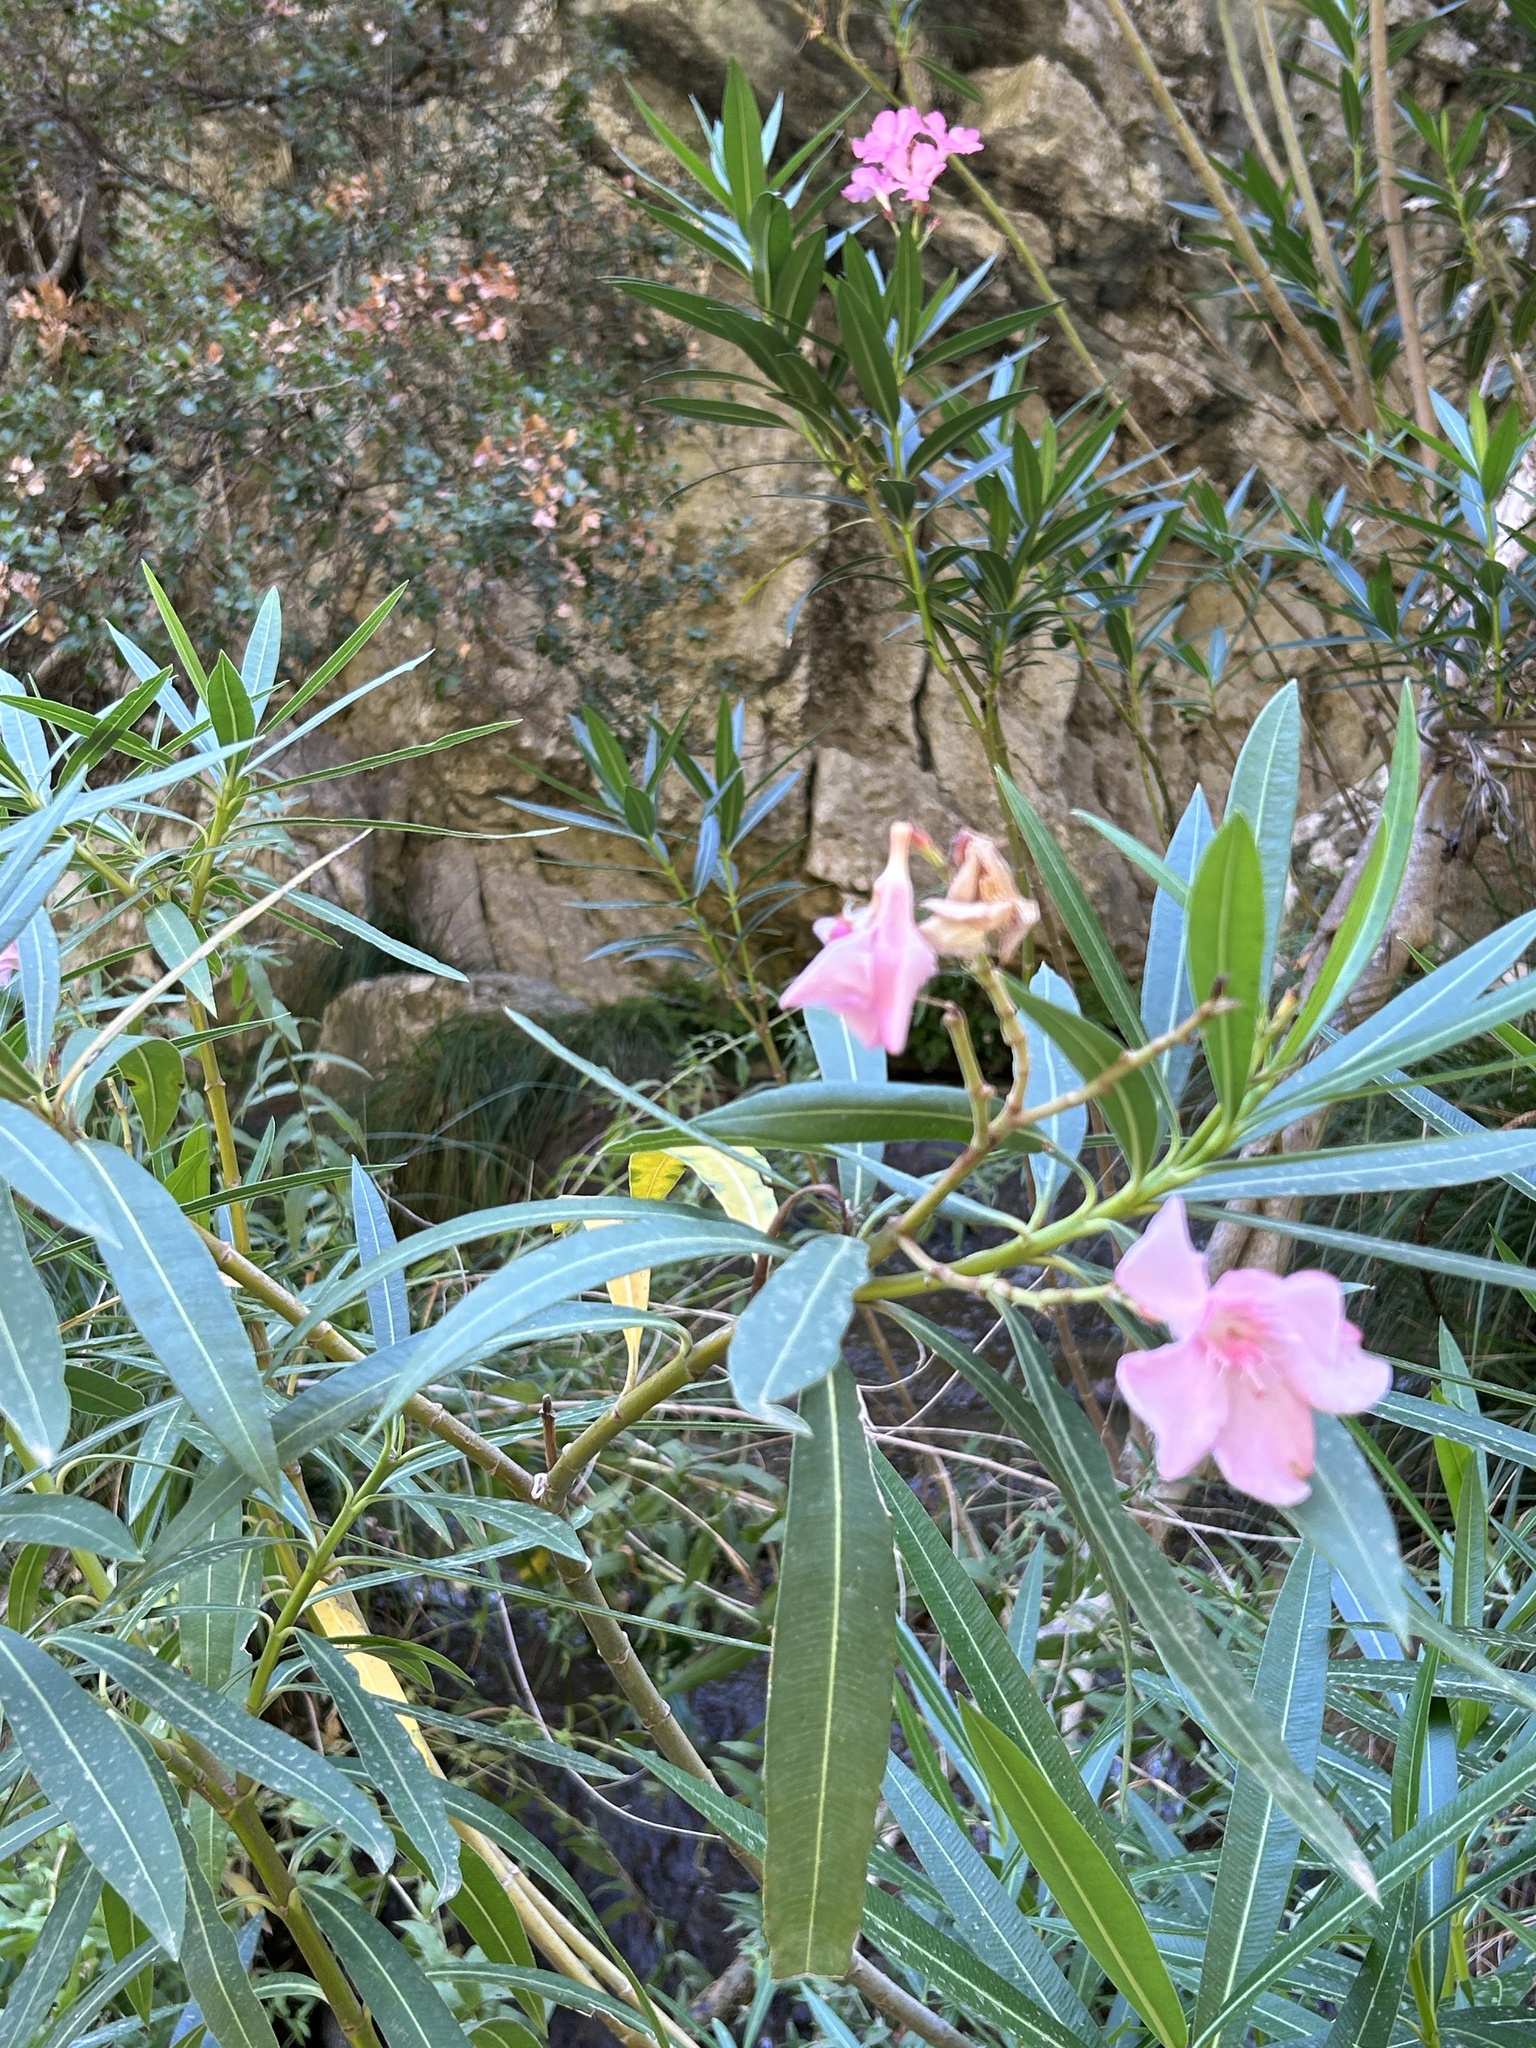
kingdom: Plantae
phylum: Tracheophyta
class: Magnoliopsida
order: Gentianales
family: Apocynaceae
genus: Nerium
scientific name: Nerium oleander
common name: Oleander
